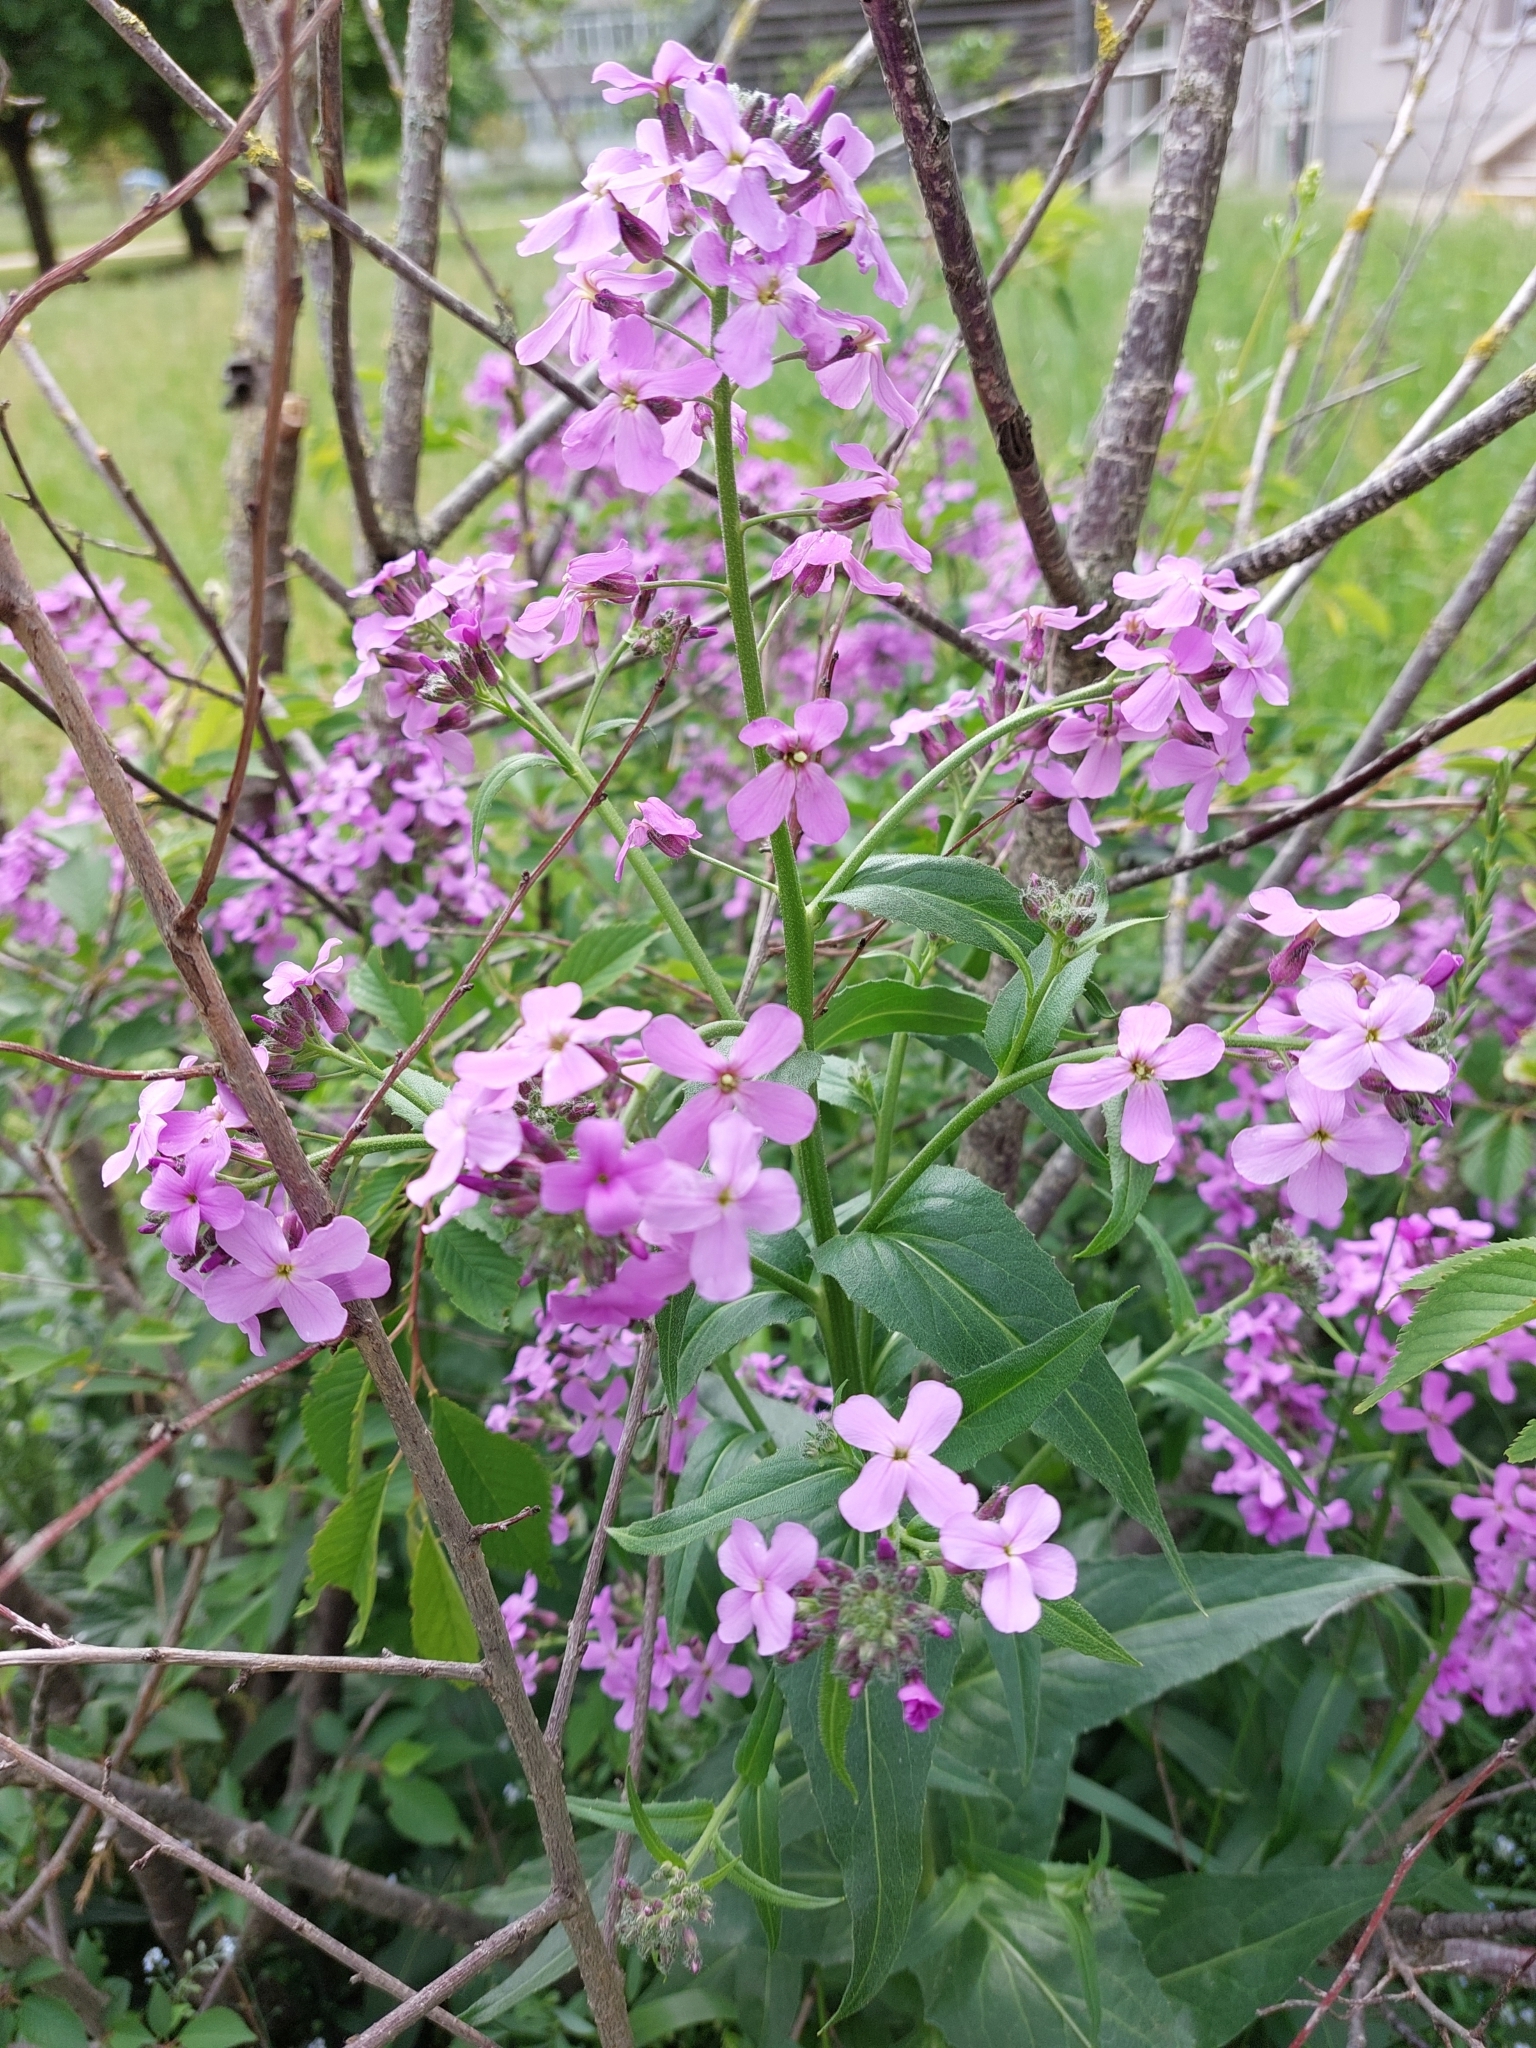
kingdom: Plantae
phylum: Tracheophyta
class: Magnoliopsida
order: Brassicales
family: Brassicaceae
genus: Hesperis
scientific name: Hesperis matronalis
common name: Dame's-violet
